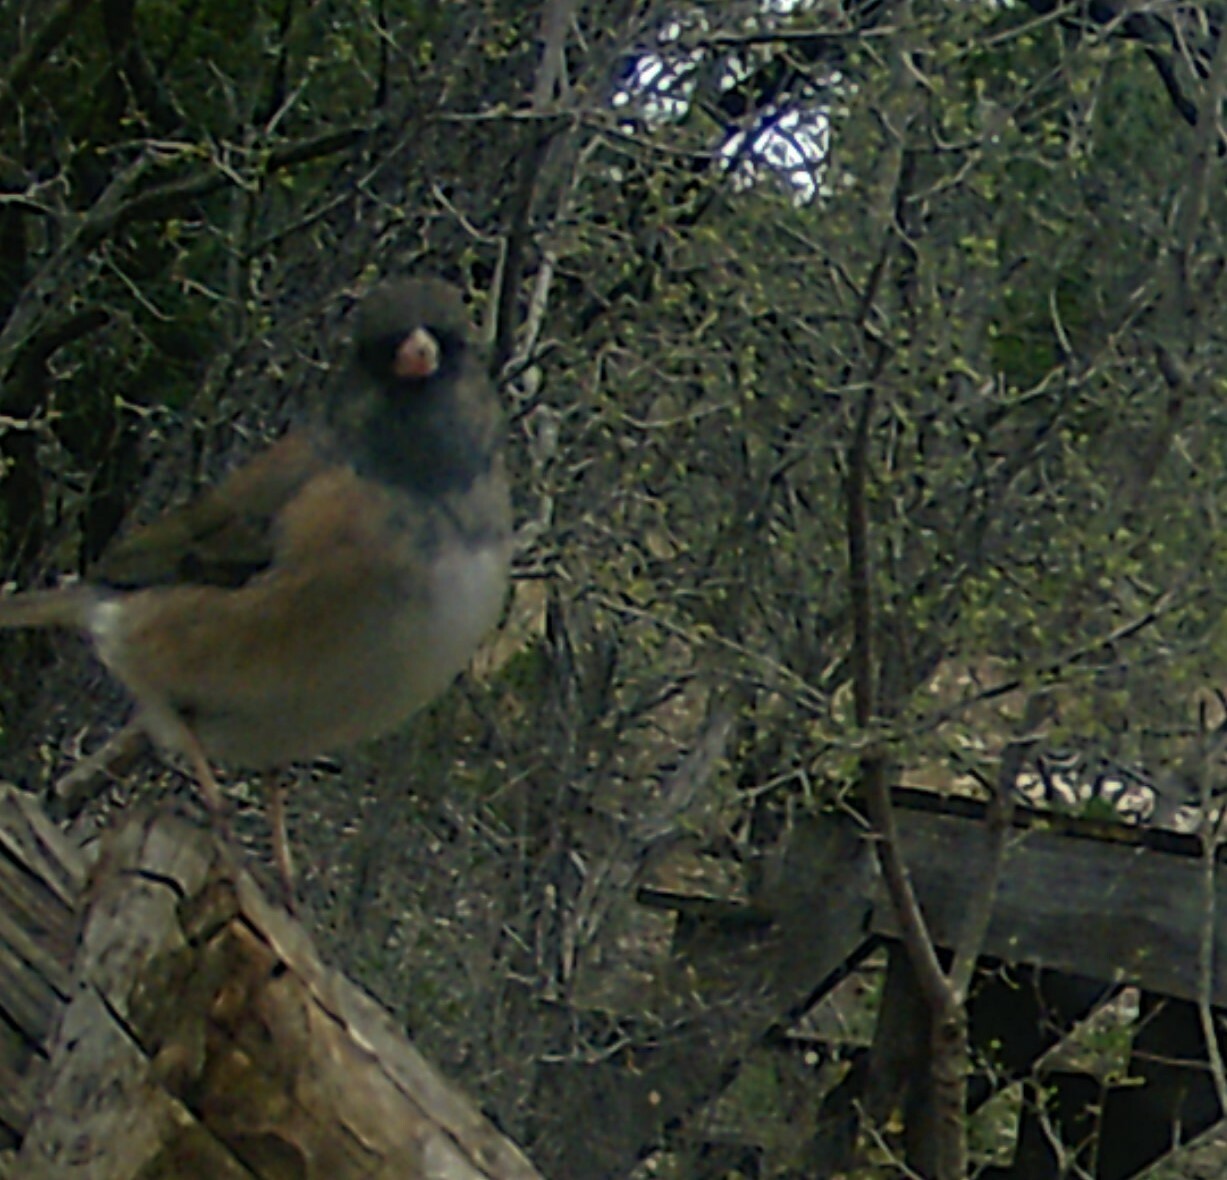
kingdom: Animalia
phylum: Chordata
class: Aves
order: Passeriformes
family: Passerellidae
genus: Junco
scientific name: Junco hyemalis
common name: Dark-eyed junco
